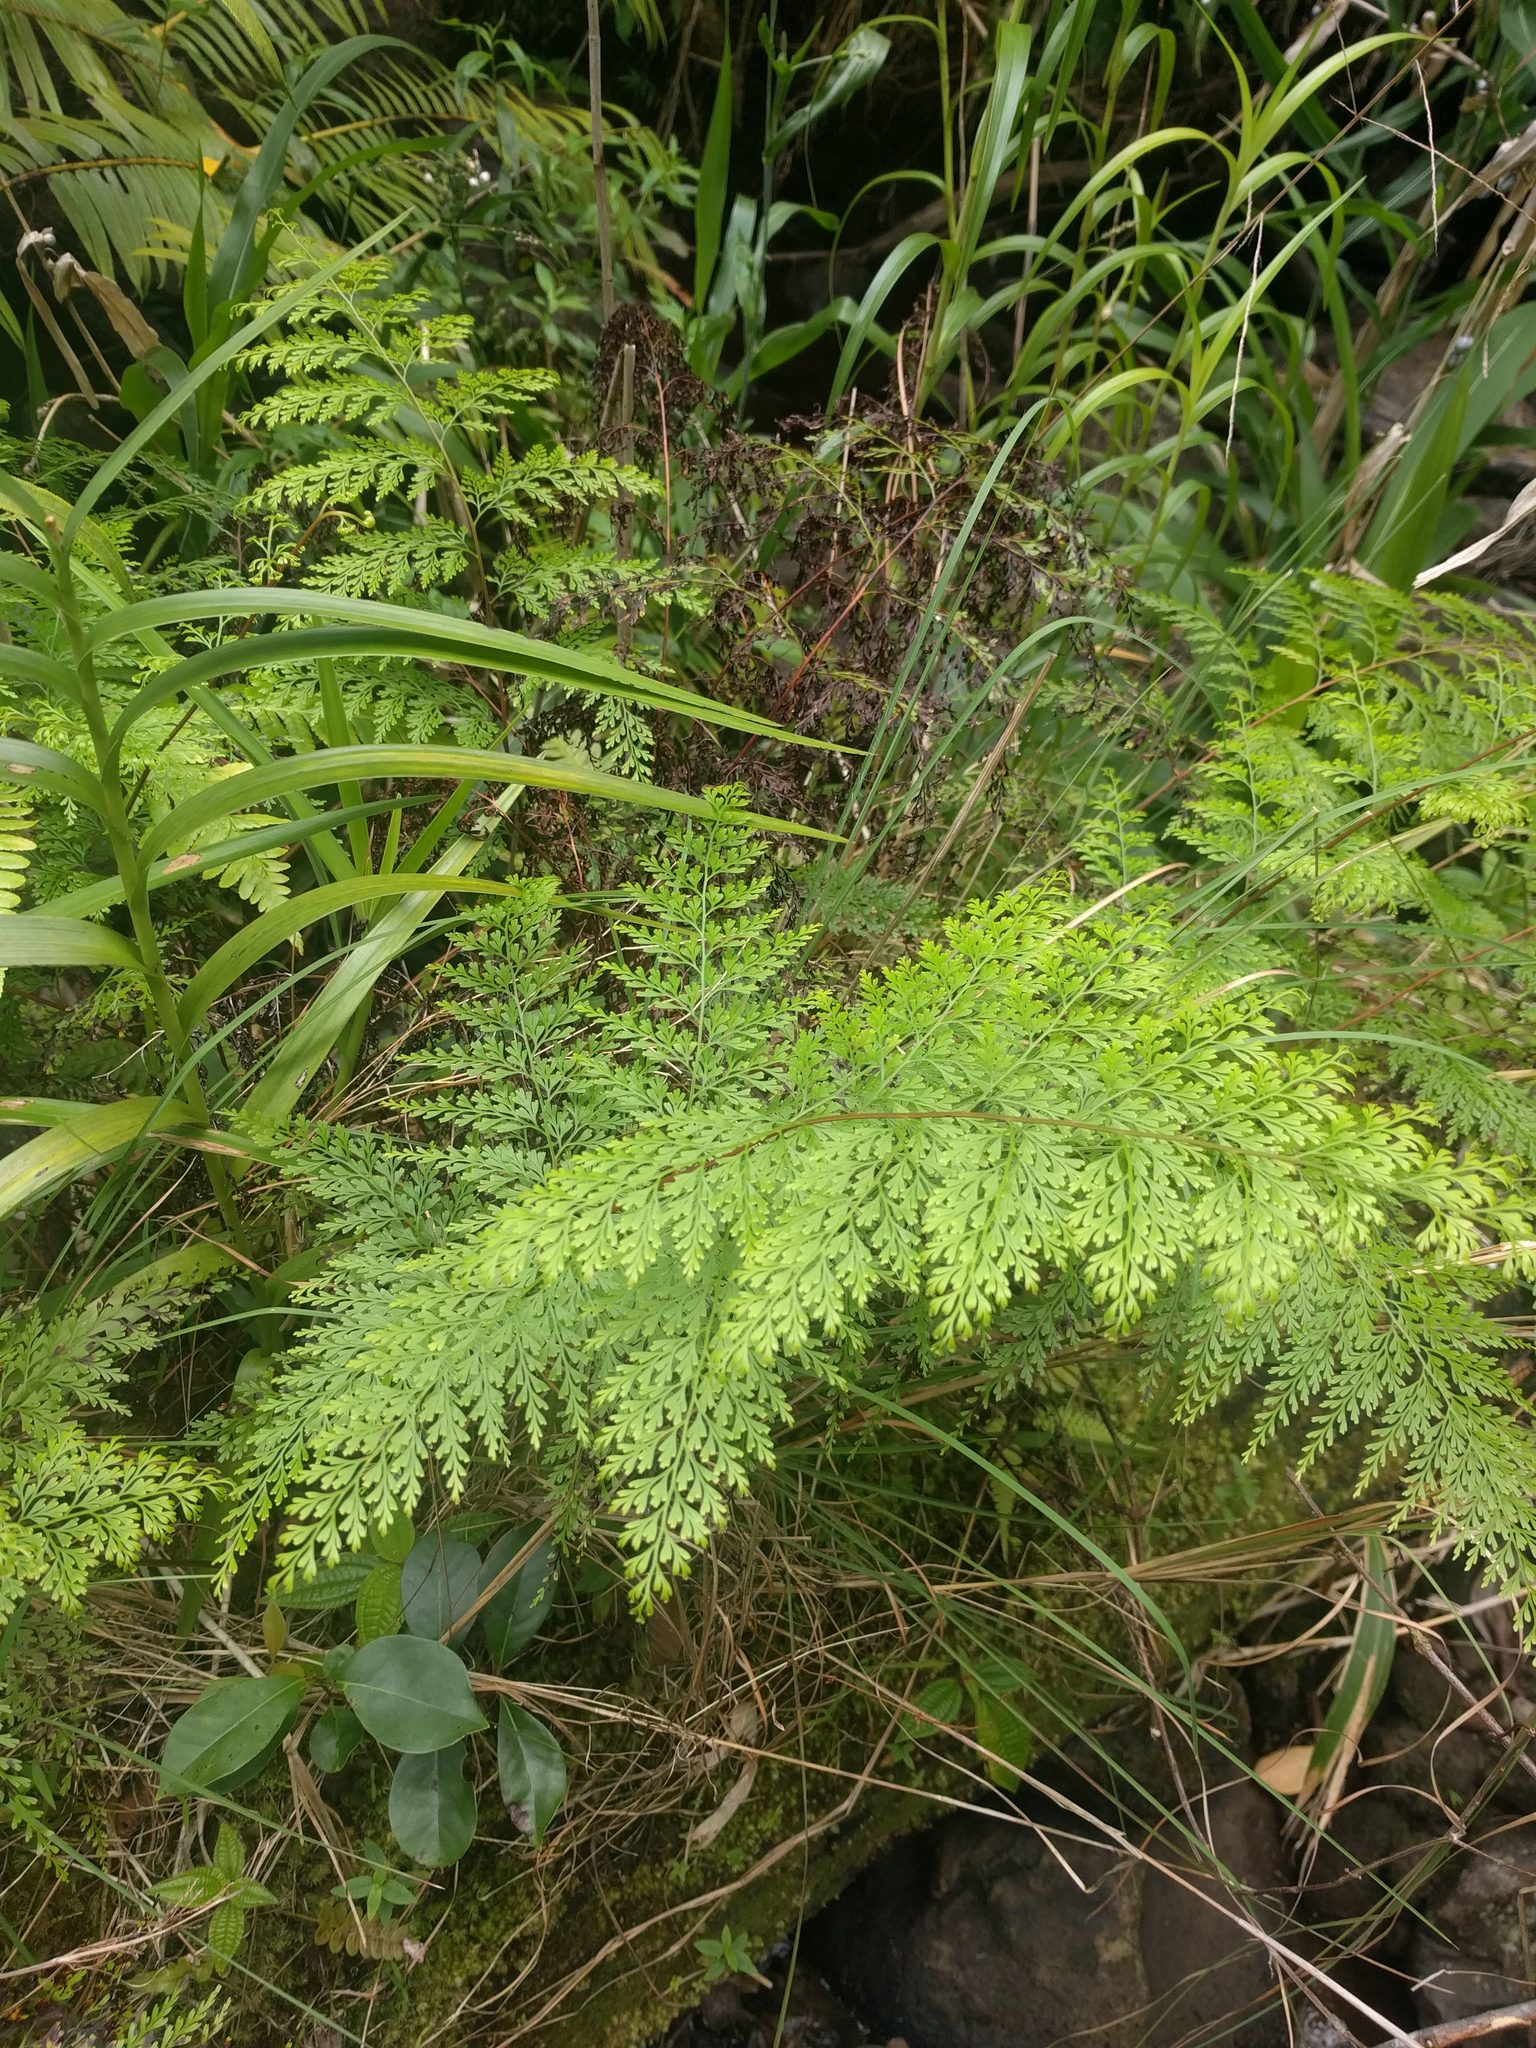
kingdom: Plantae
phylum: Tracheophyta
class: Polypodiopsida
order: Polypodiales
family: Lindsaeaceae
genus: Odontosoria
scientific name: Odontosoria chinensis
